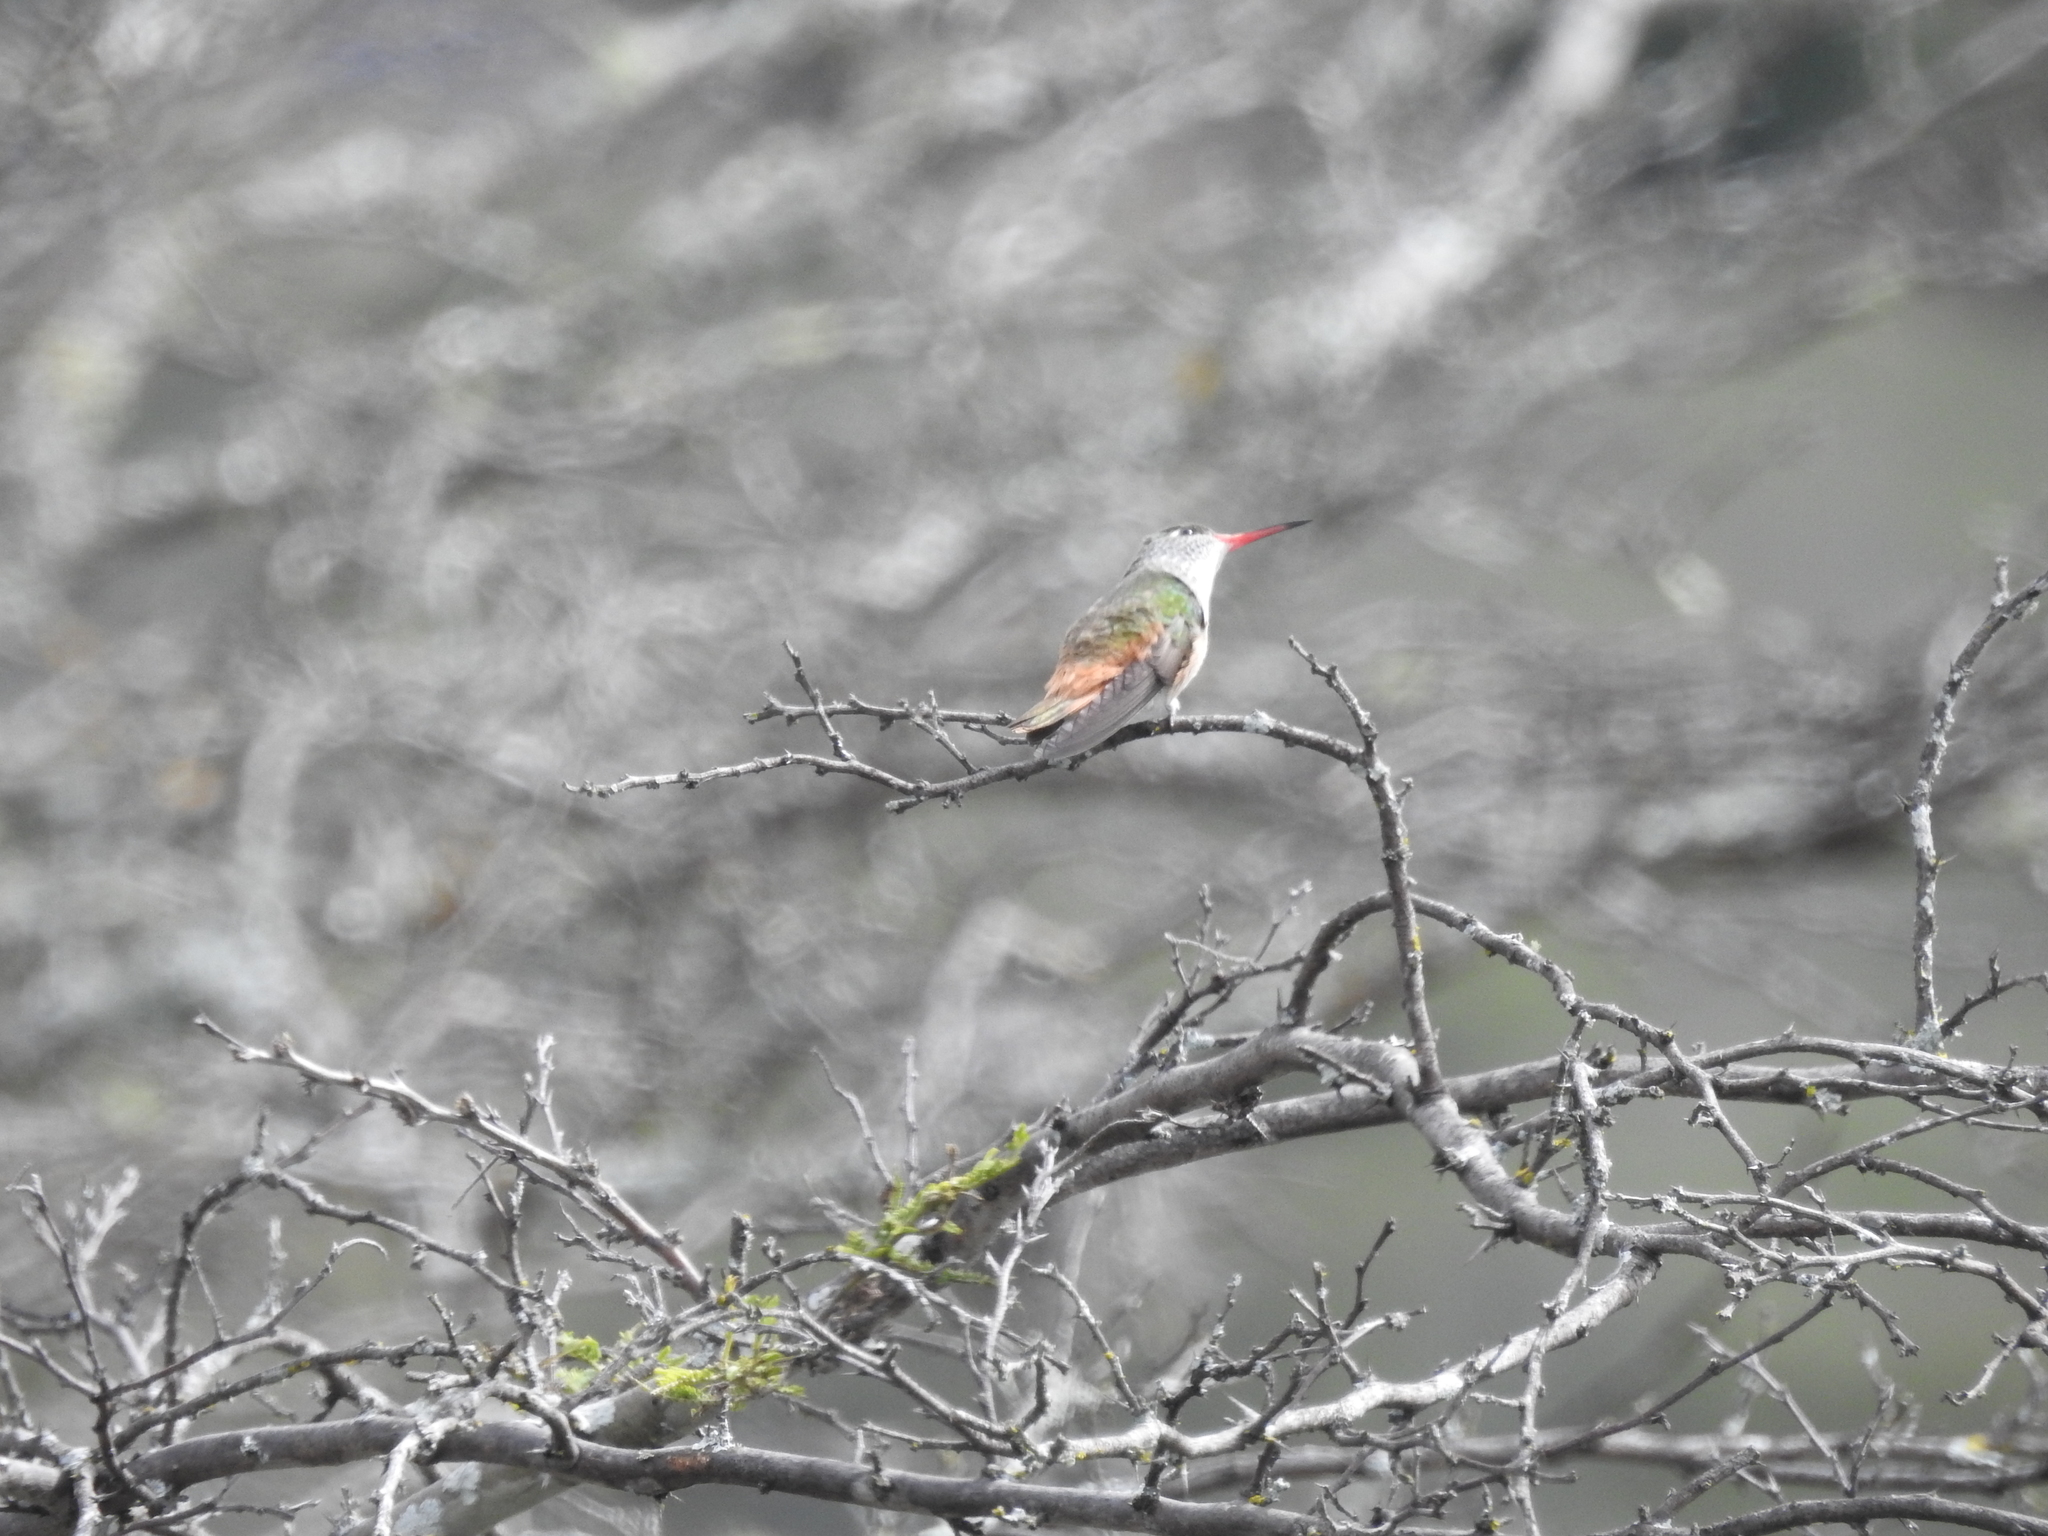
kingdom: Animalia
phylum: Chordata
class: Aves
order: Apodiformes
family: Trochilidae
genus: Amazilis
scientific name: Amazilis amazilia
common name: Amazilia hummingbird
